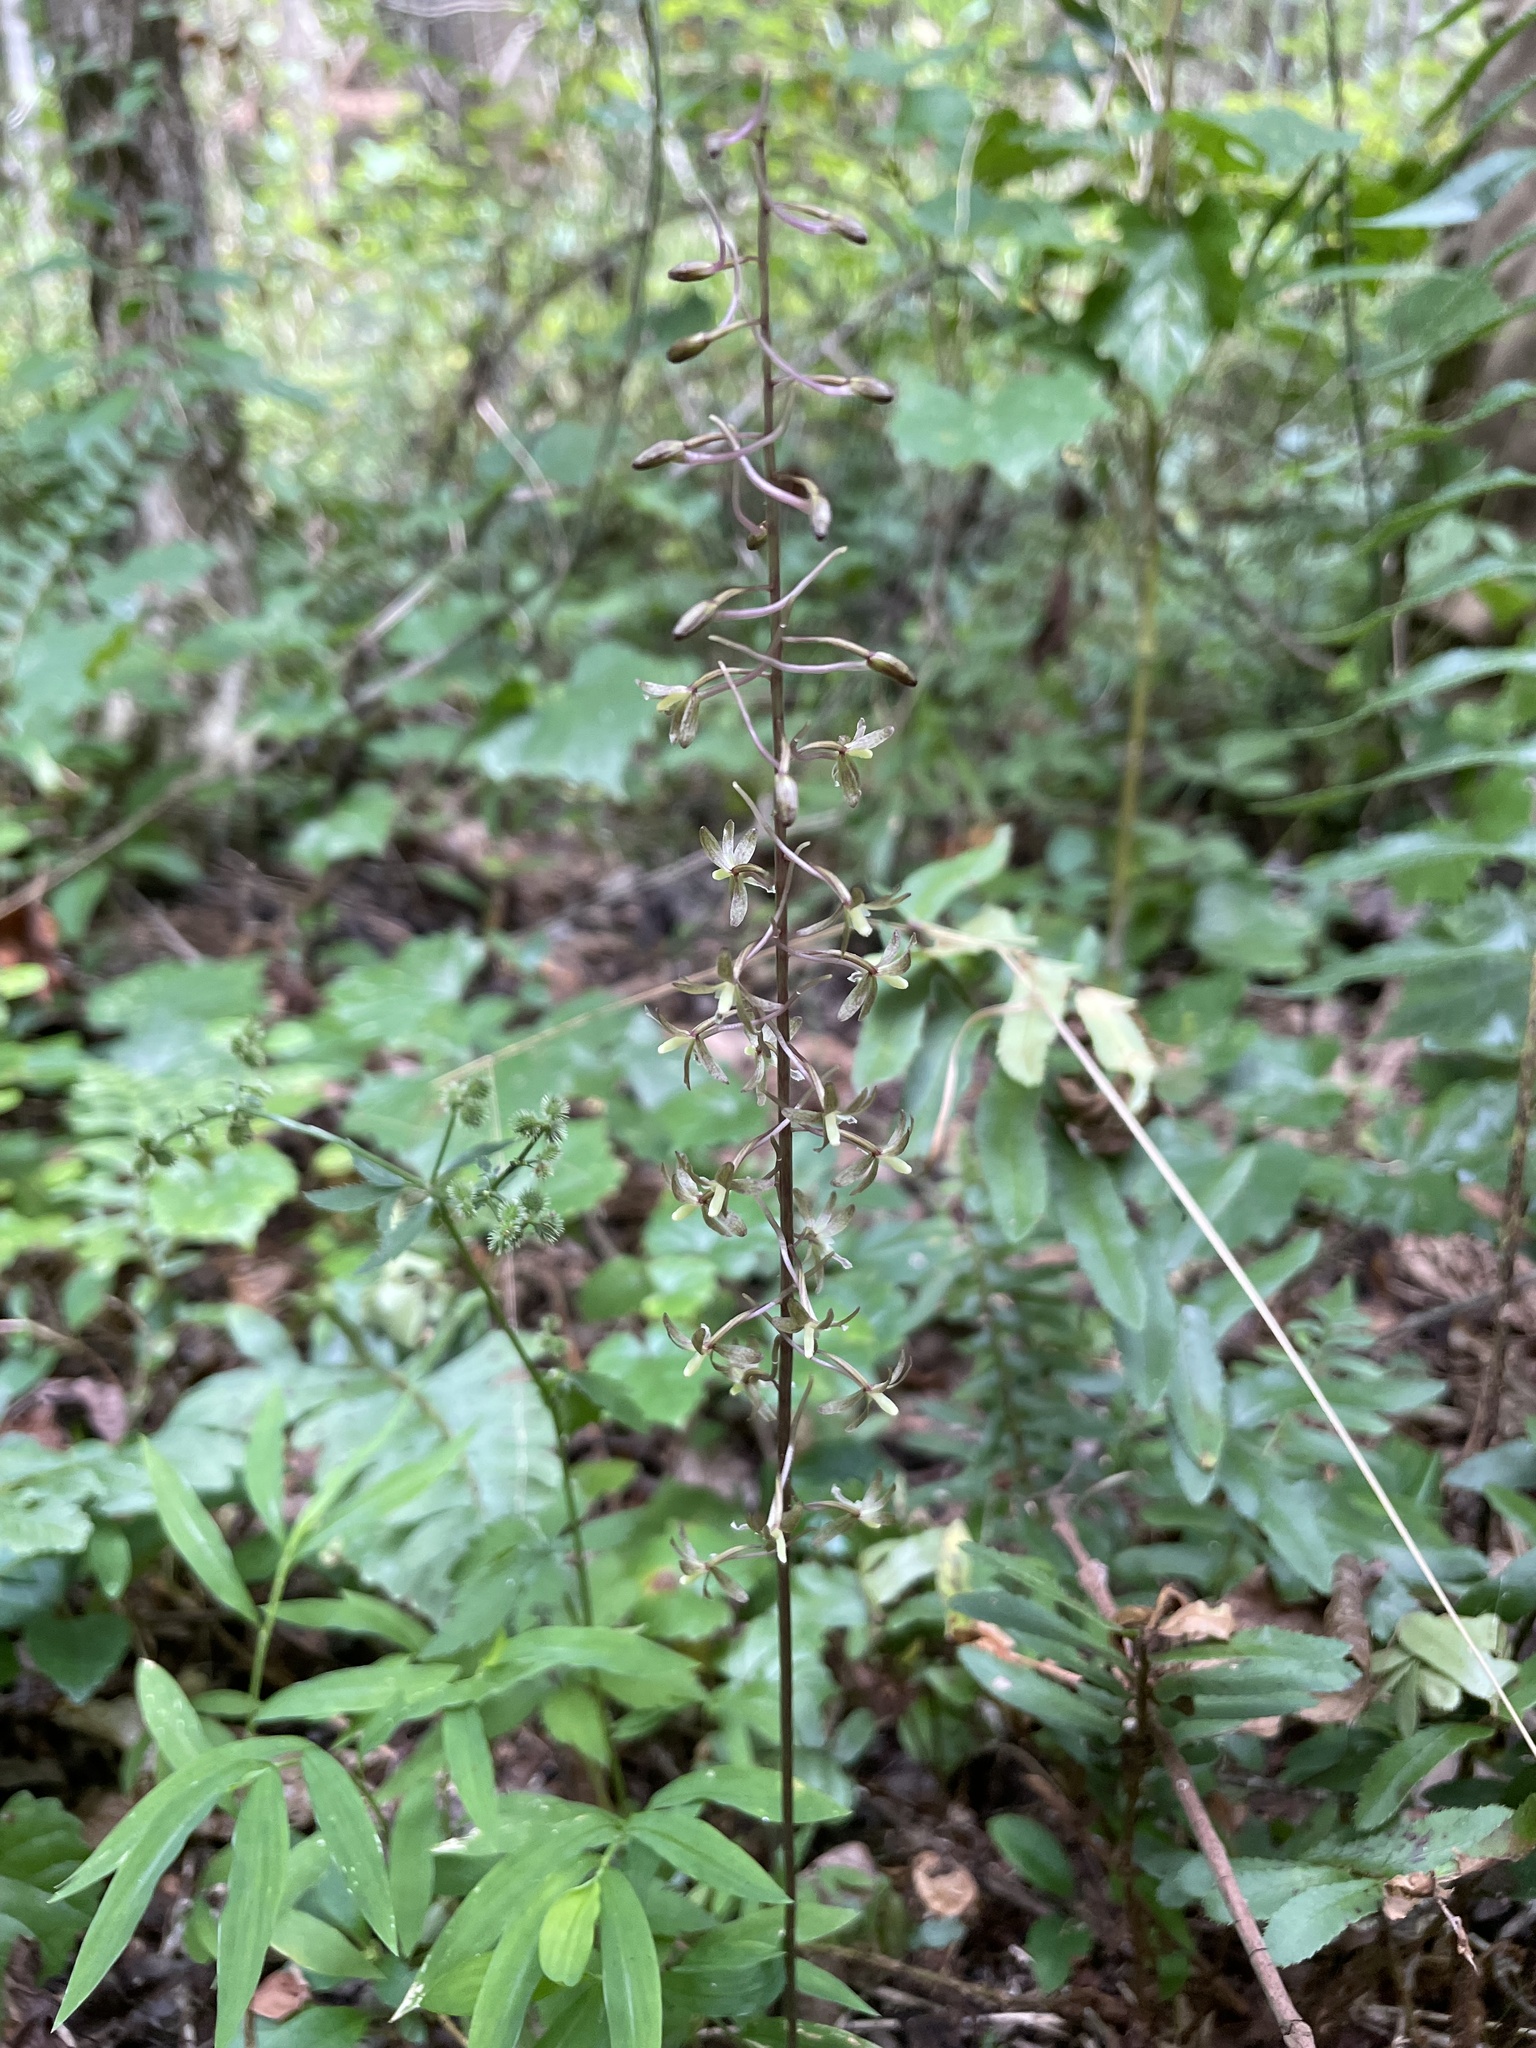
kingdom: Plantae
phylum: Tracheophyta
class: Liliopsida
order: Asparagales
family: Orchidaceae
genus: Tipularia
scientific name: Tipularia discolor
